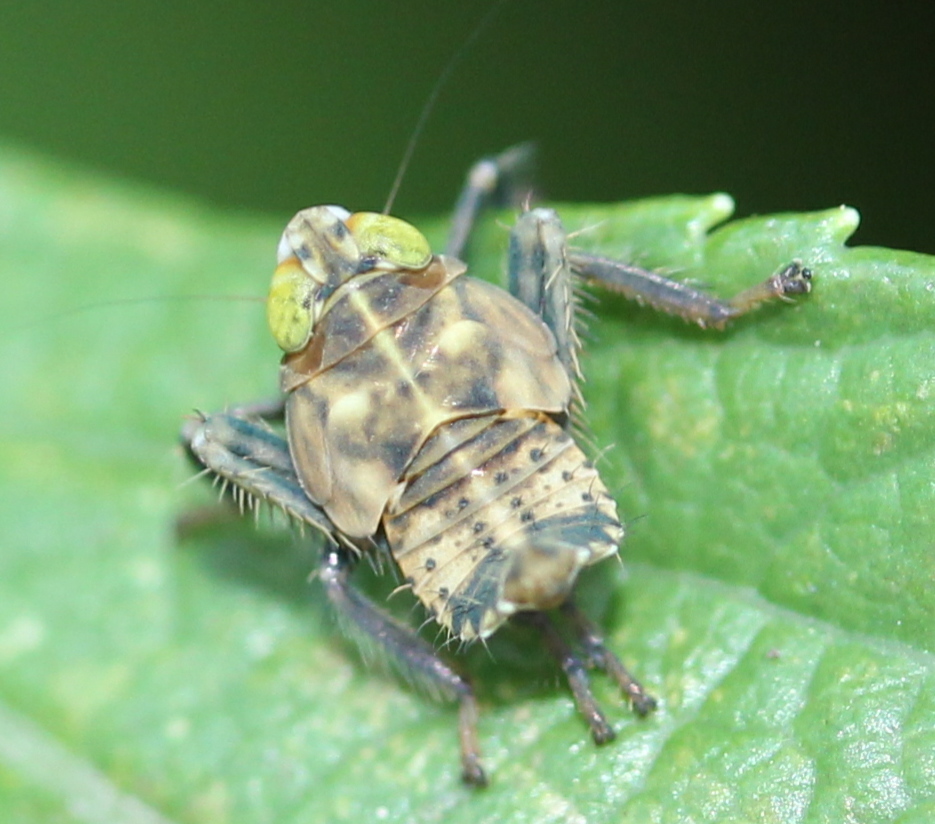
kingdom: Animalia
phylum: Arthropoda
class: Insecta
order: Hemiptera
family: Cicadellidae
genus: Jikradia
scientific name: Jikradia olitoria
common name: Coppery leafhopper
